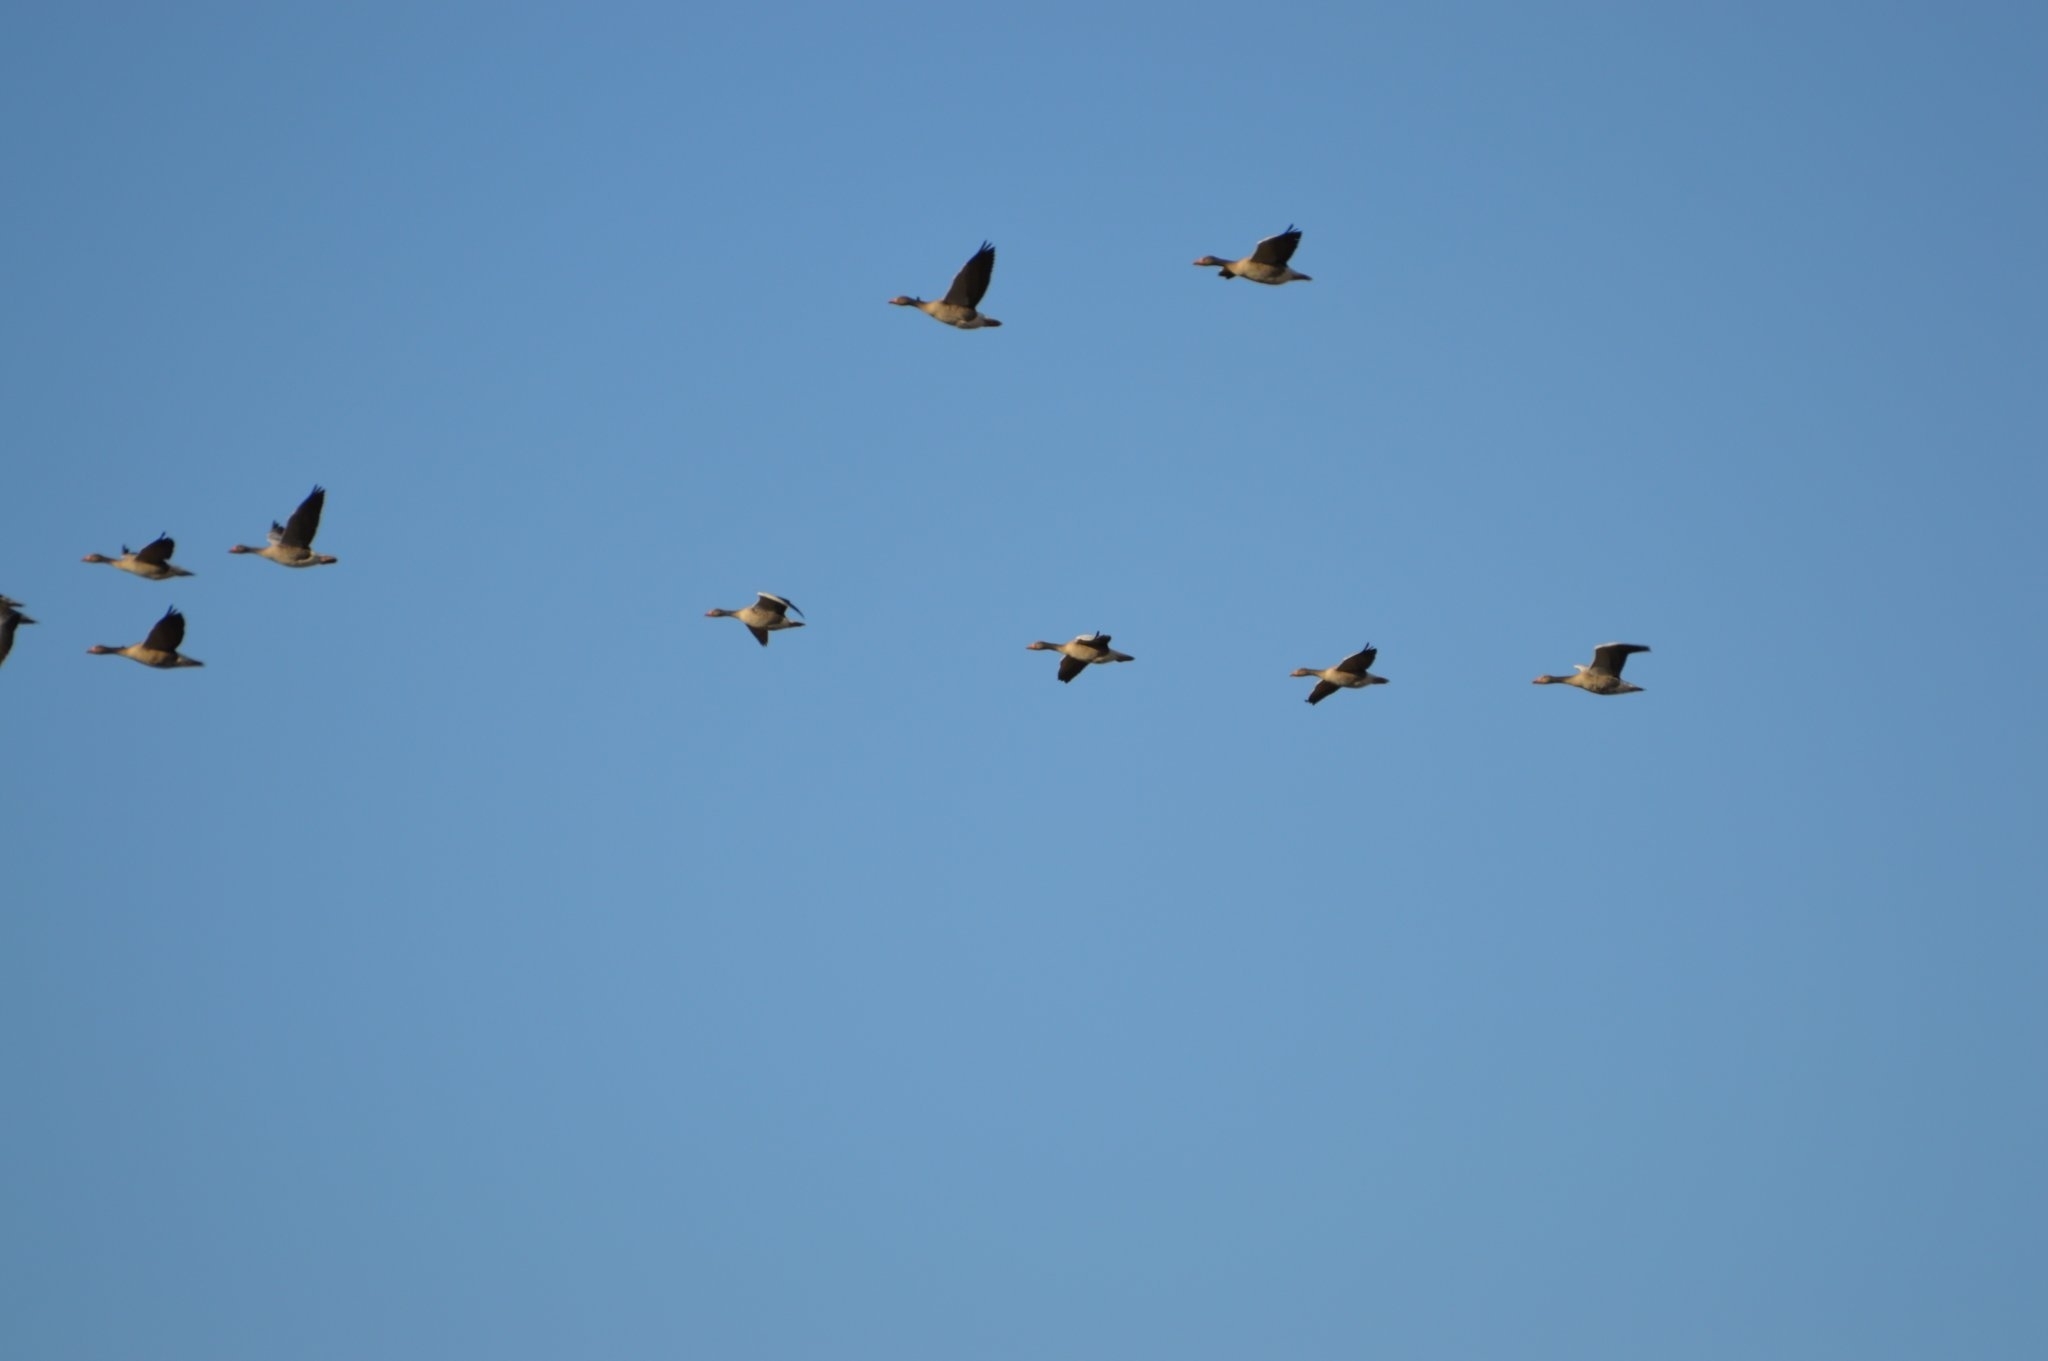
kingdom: Animalia
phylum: Chordata
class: Aves
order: Anseriformes
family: Anatidae
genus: Anser
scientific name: Anser anser
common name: Greylag goose
